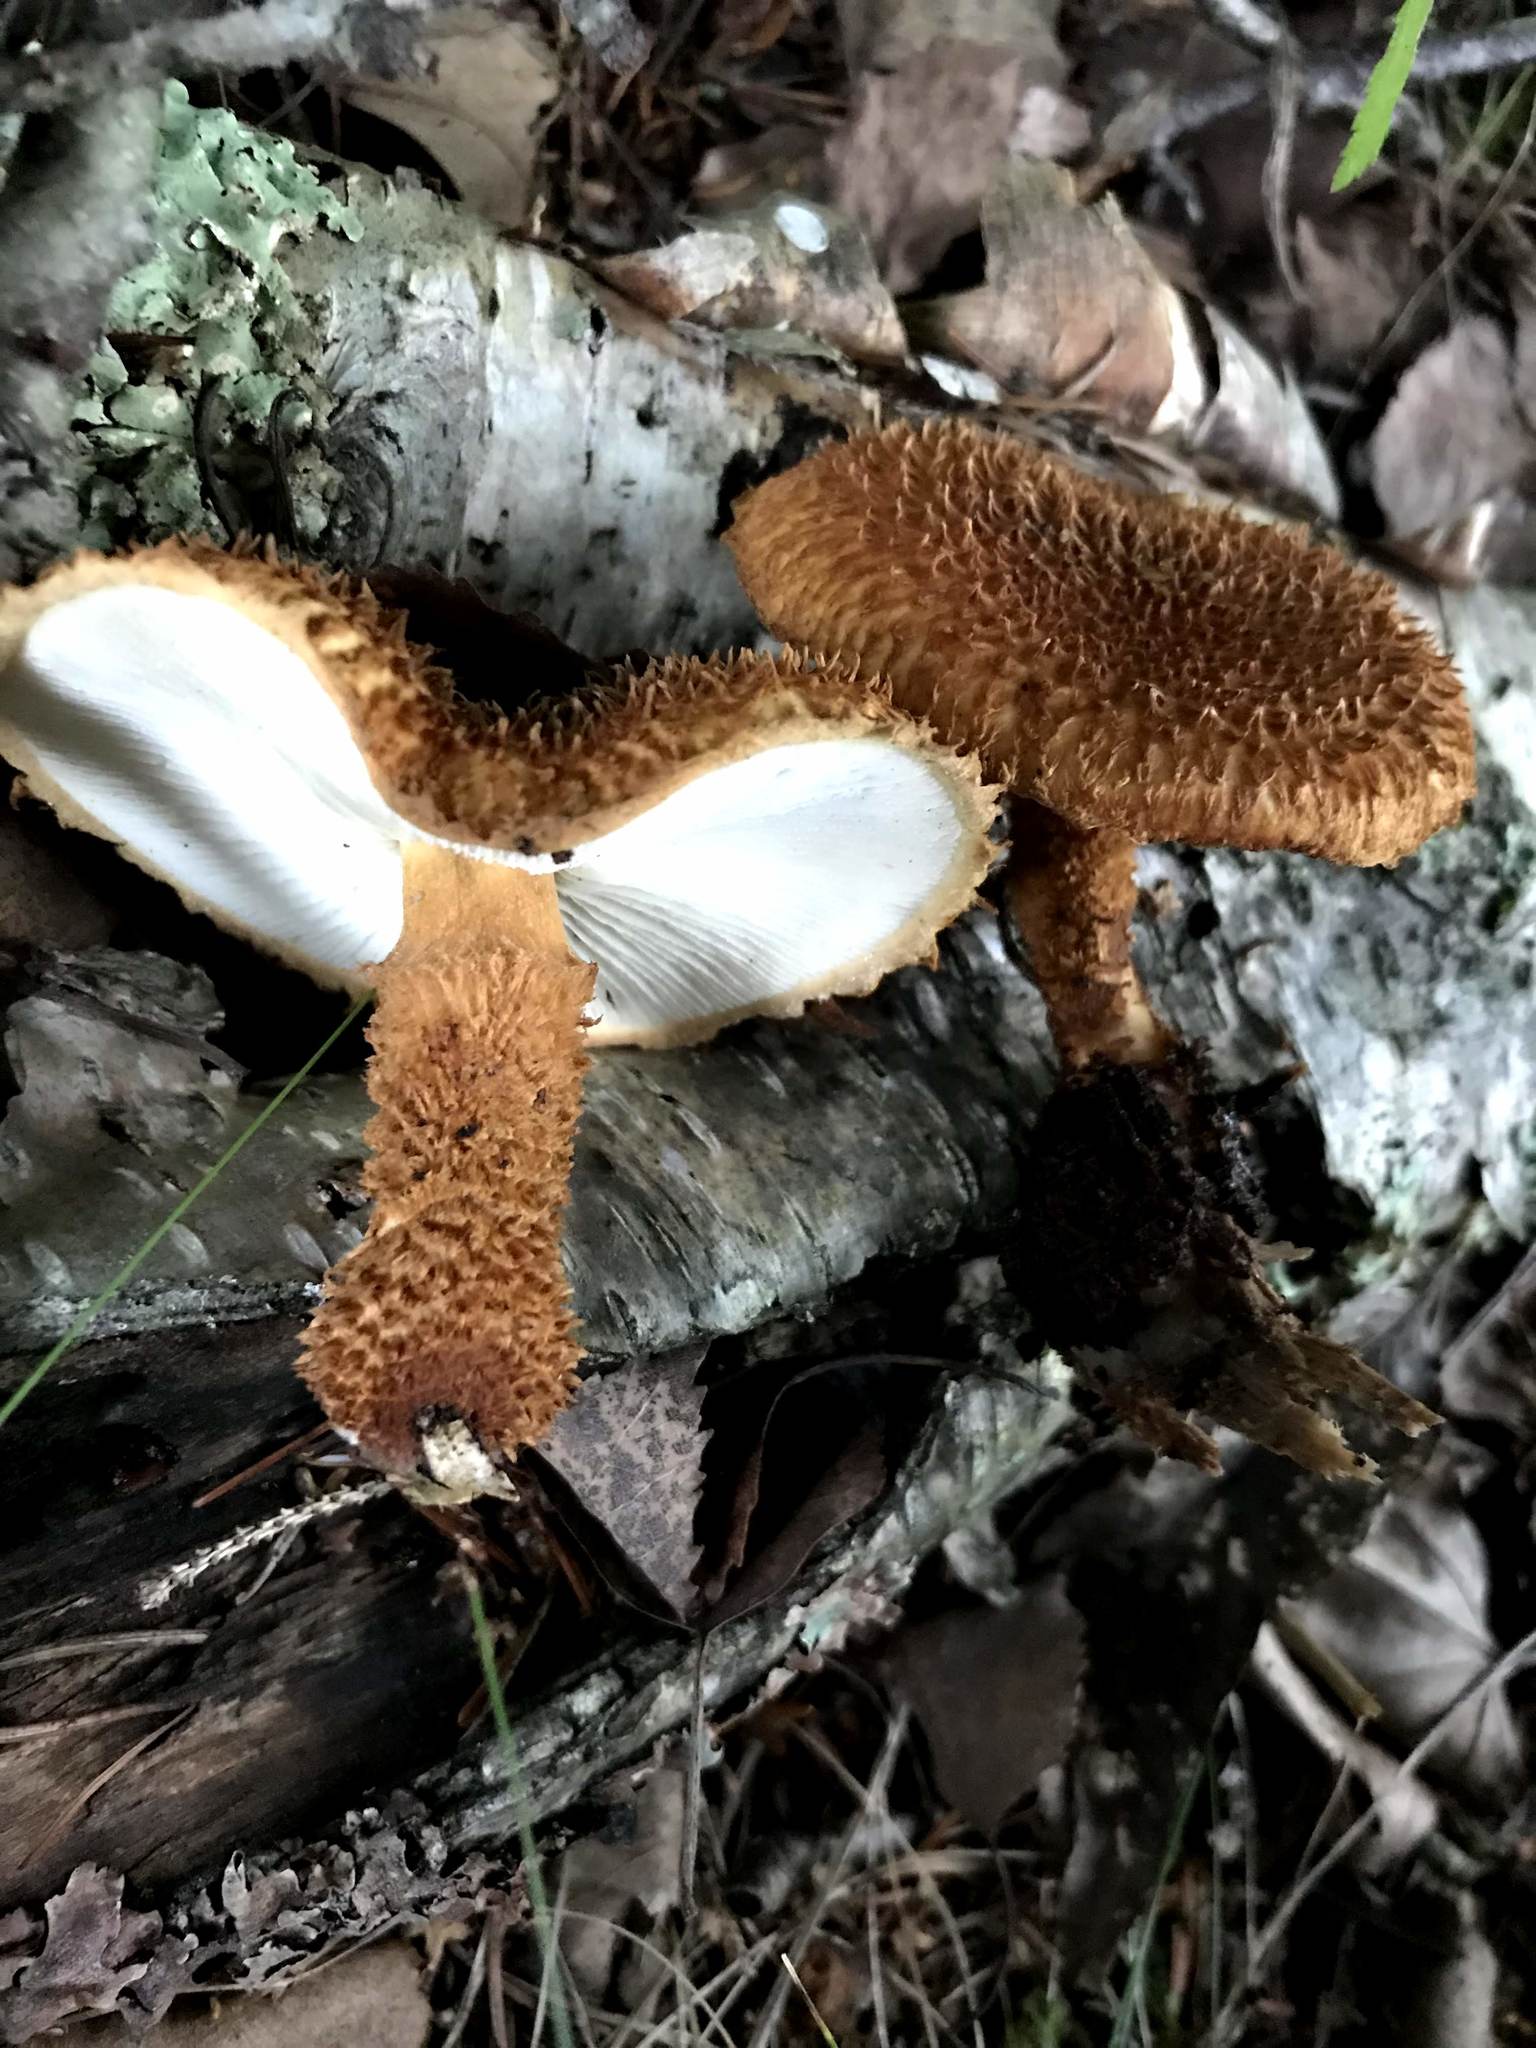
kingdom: Fungi
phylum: Basidiomycota
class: Agaricomycetes
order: Agaricales
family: Agaricaceae
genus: Leucopholiota
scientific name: Leucopholiota decorosa
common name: Decorated pholiota
